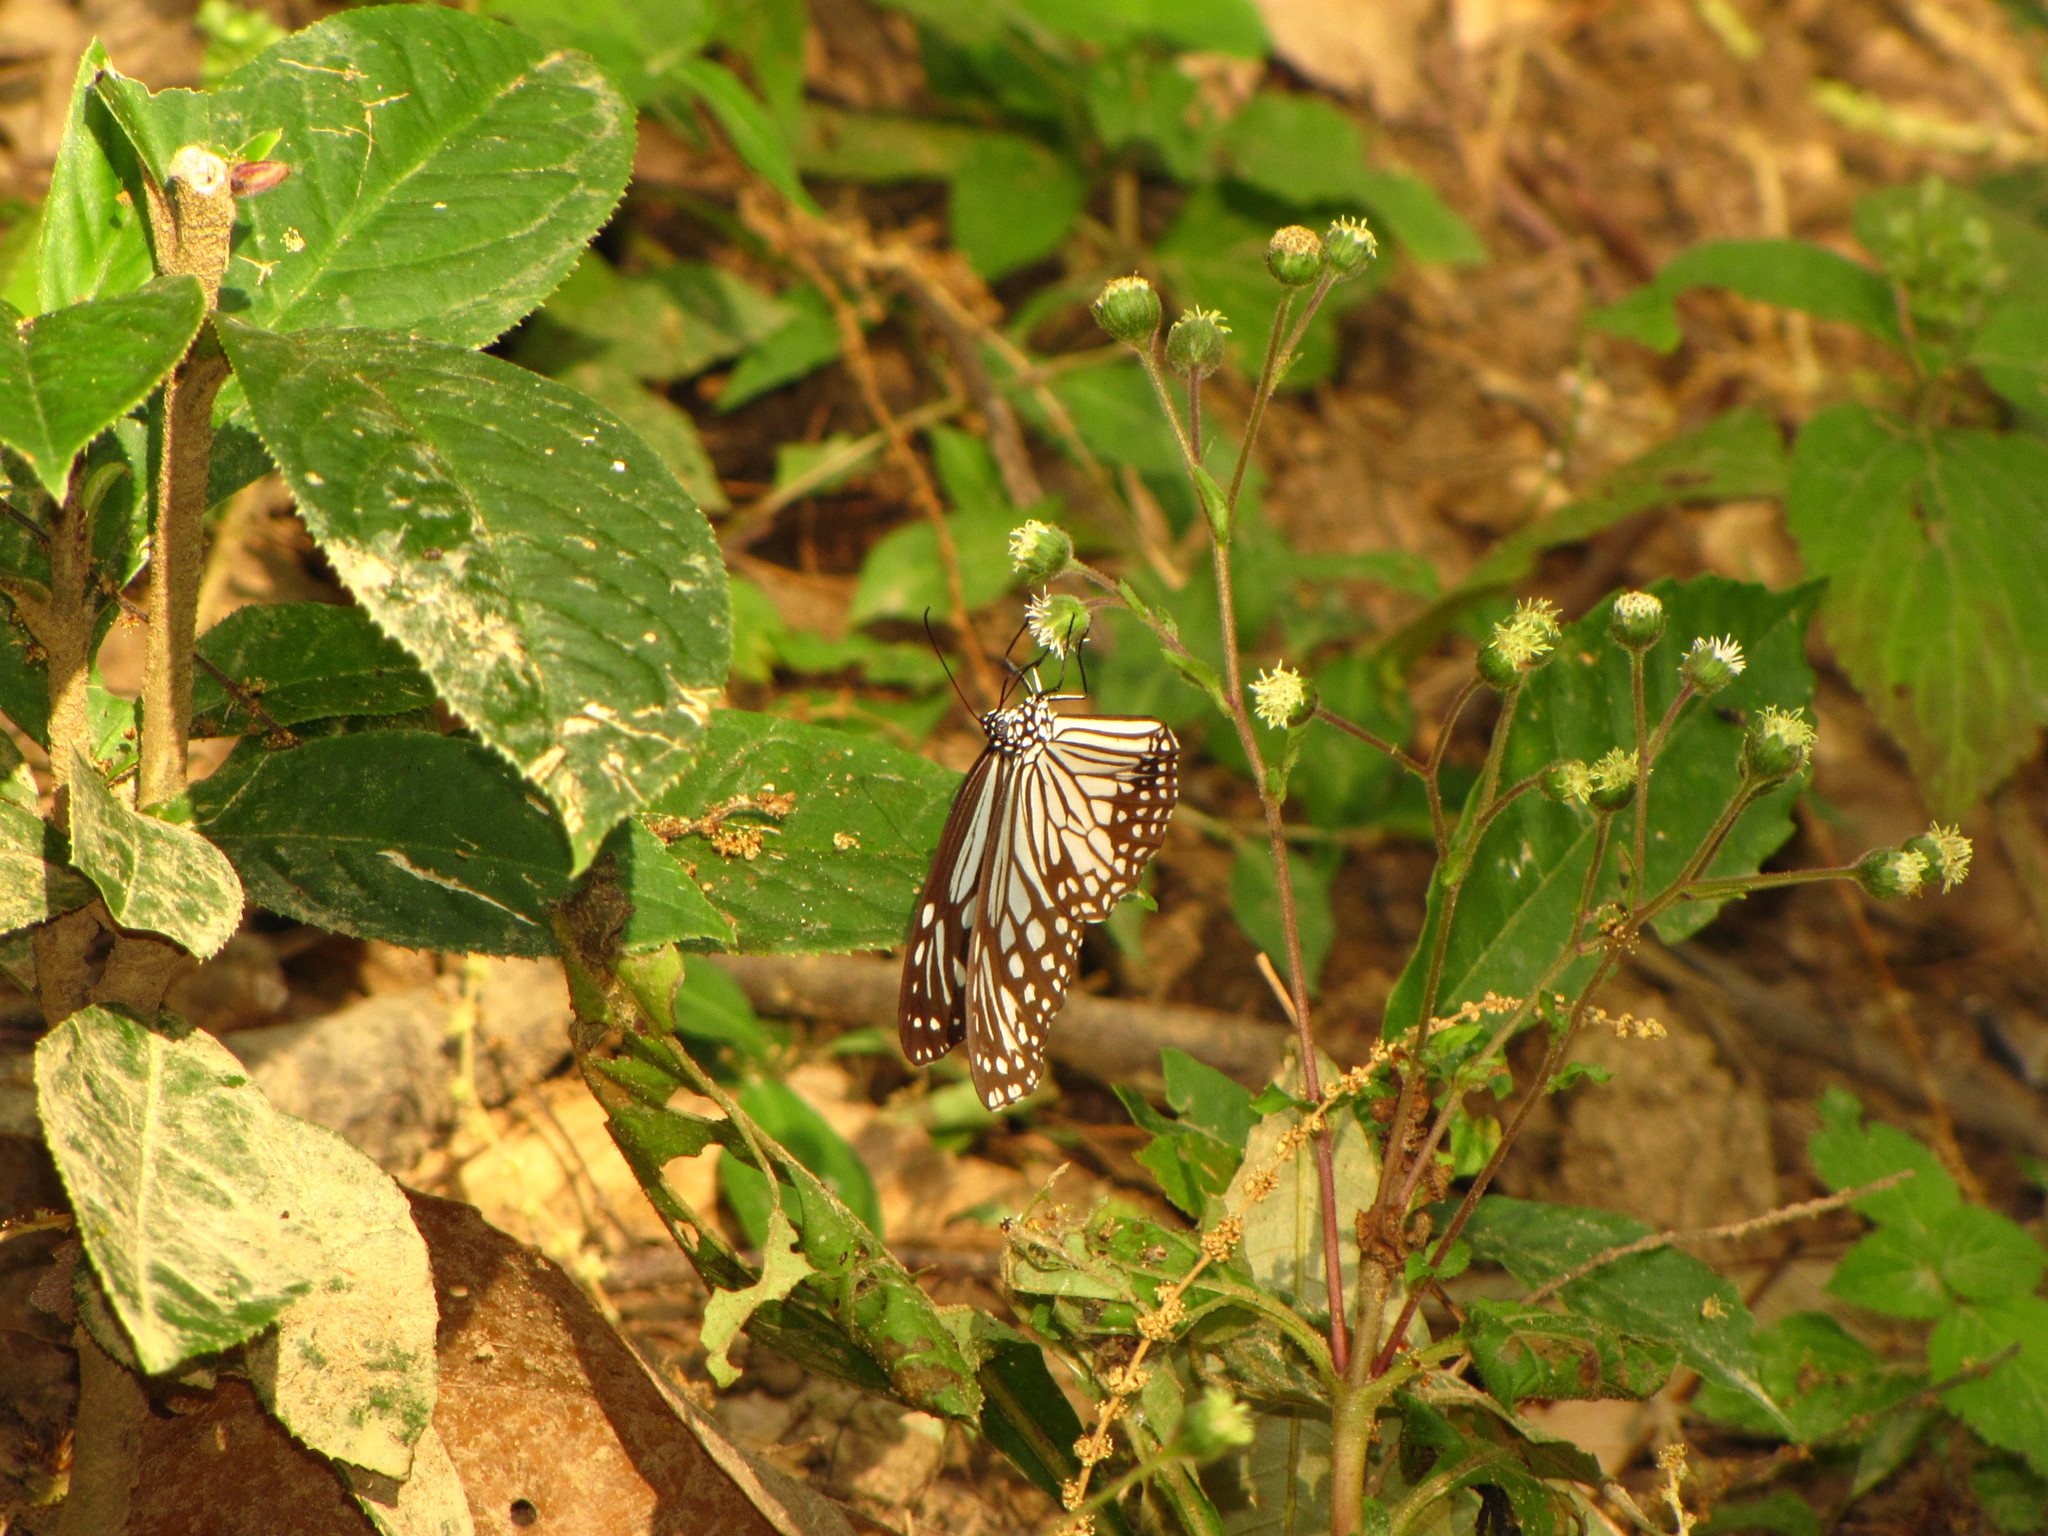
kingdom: Animalia
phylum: Arthropoda
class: Insecta
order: Lepidoptera
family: Nymphalidae
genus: Parantica
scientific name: Parantica aglea
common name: Glassy tiger
